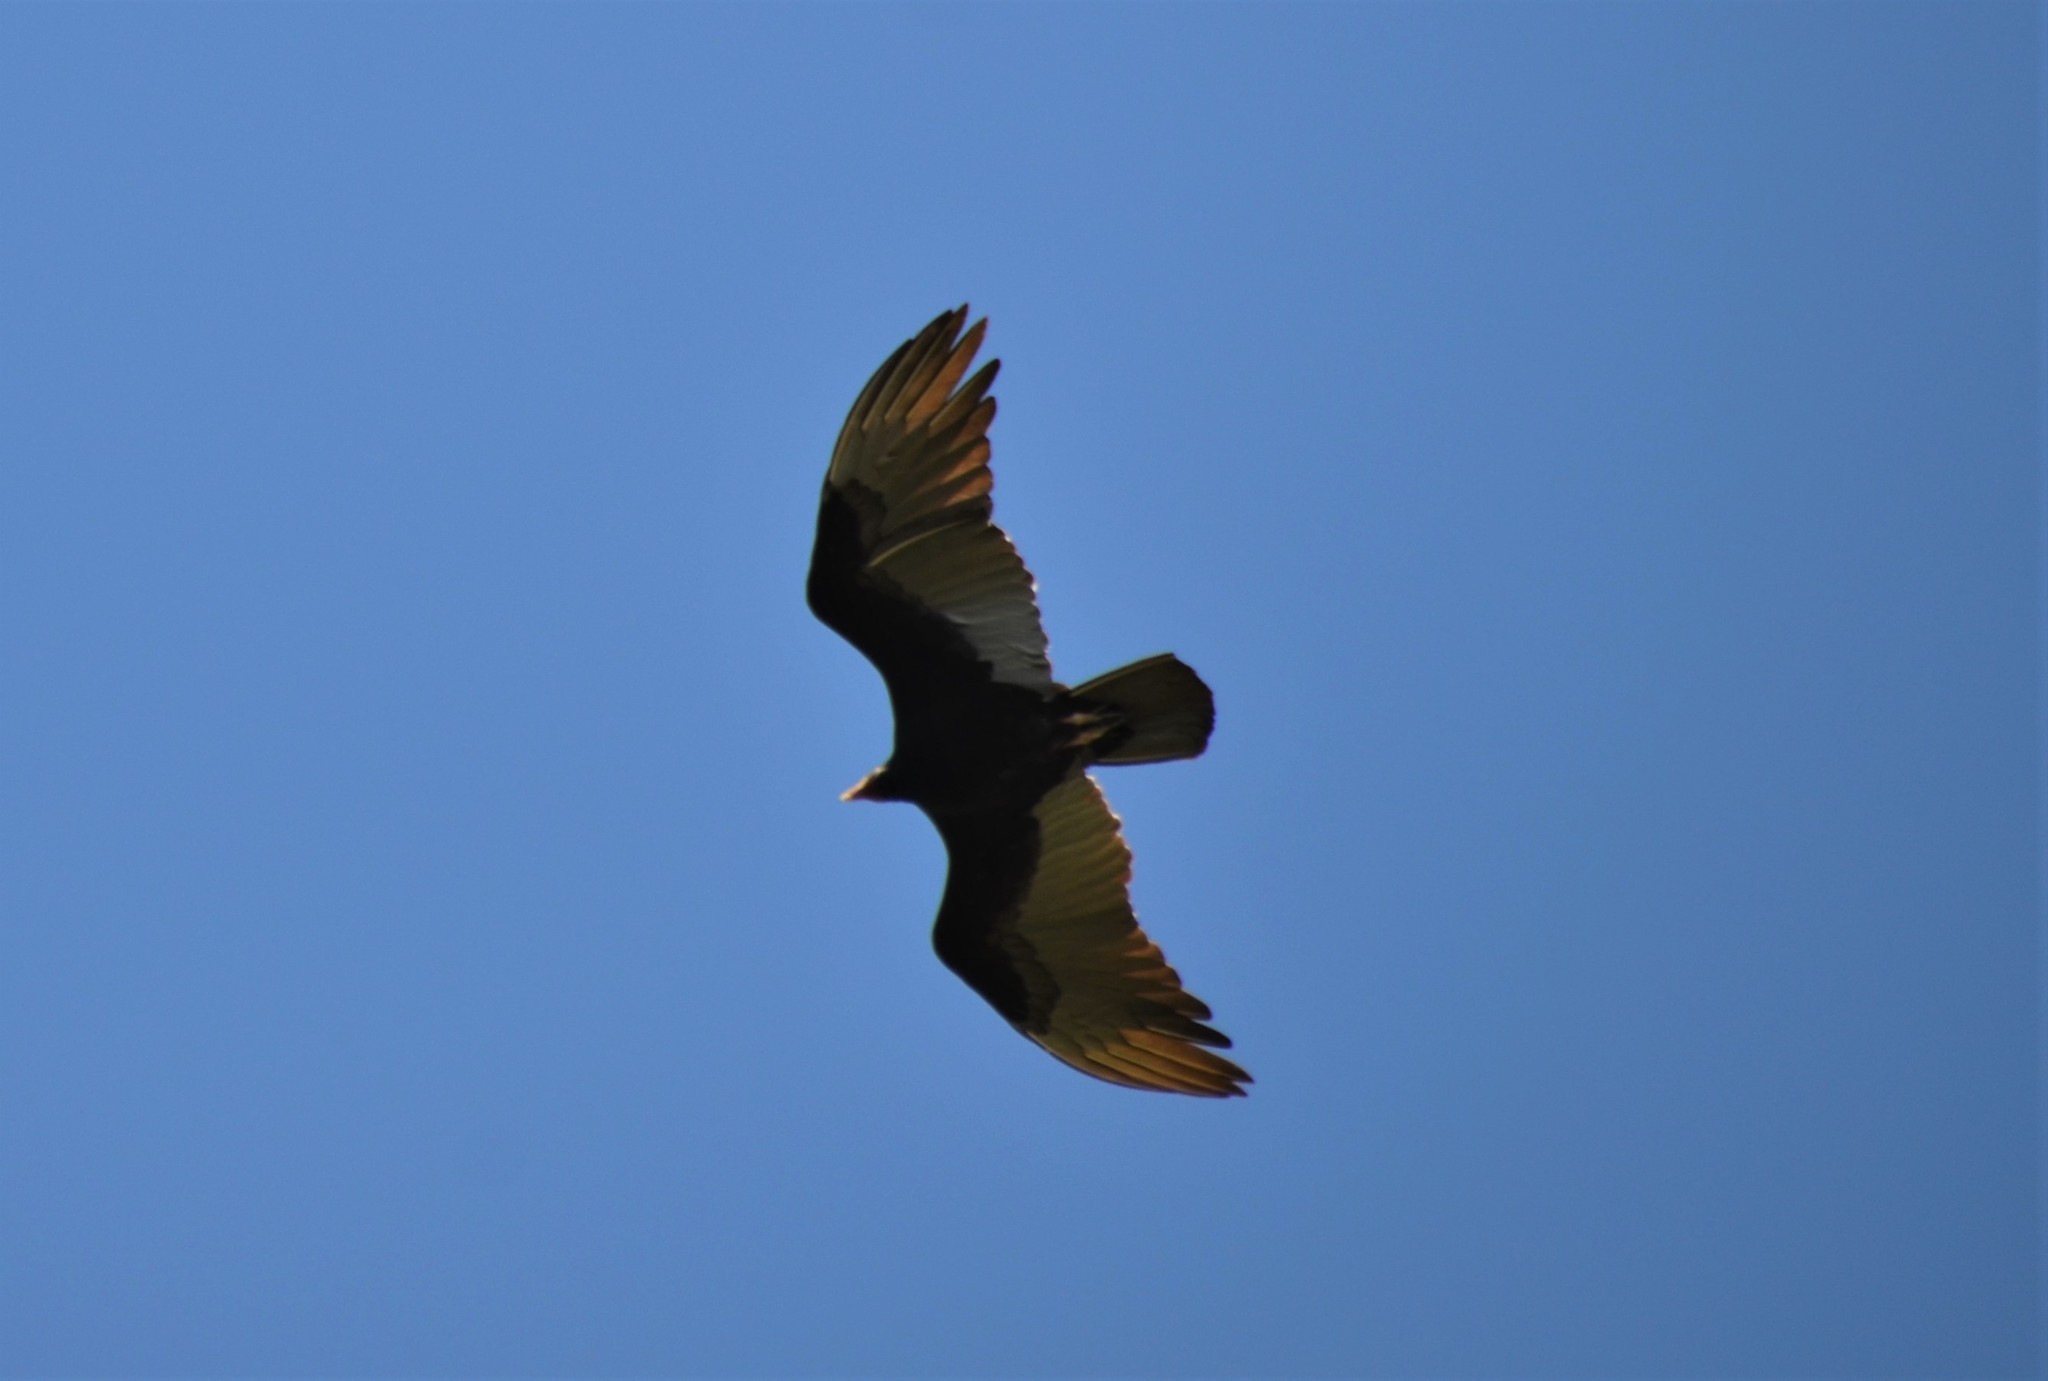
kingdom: Animalia
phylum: Chordata
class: Aves
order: Accipitriformes
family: Cathartidae
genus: Cathartes
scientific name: Cathartes aura
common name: Turkey vulture
